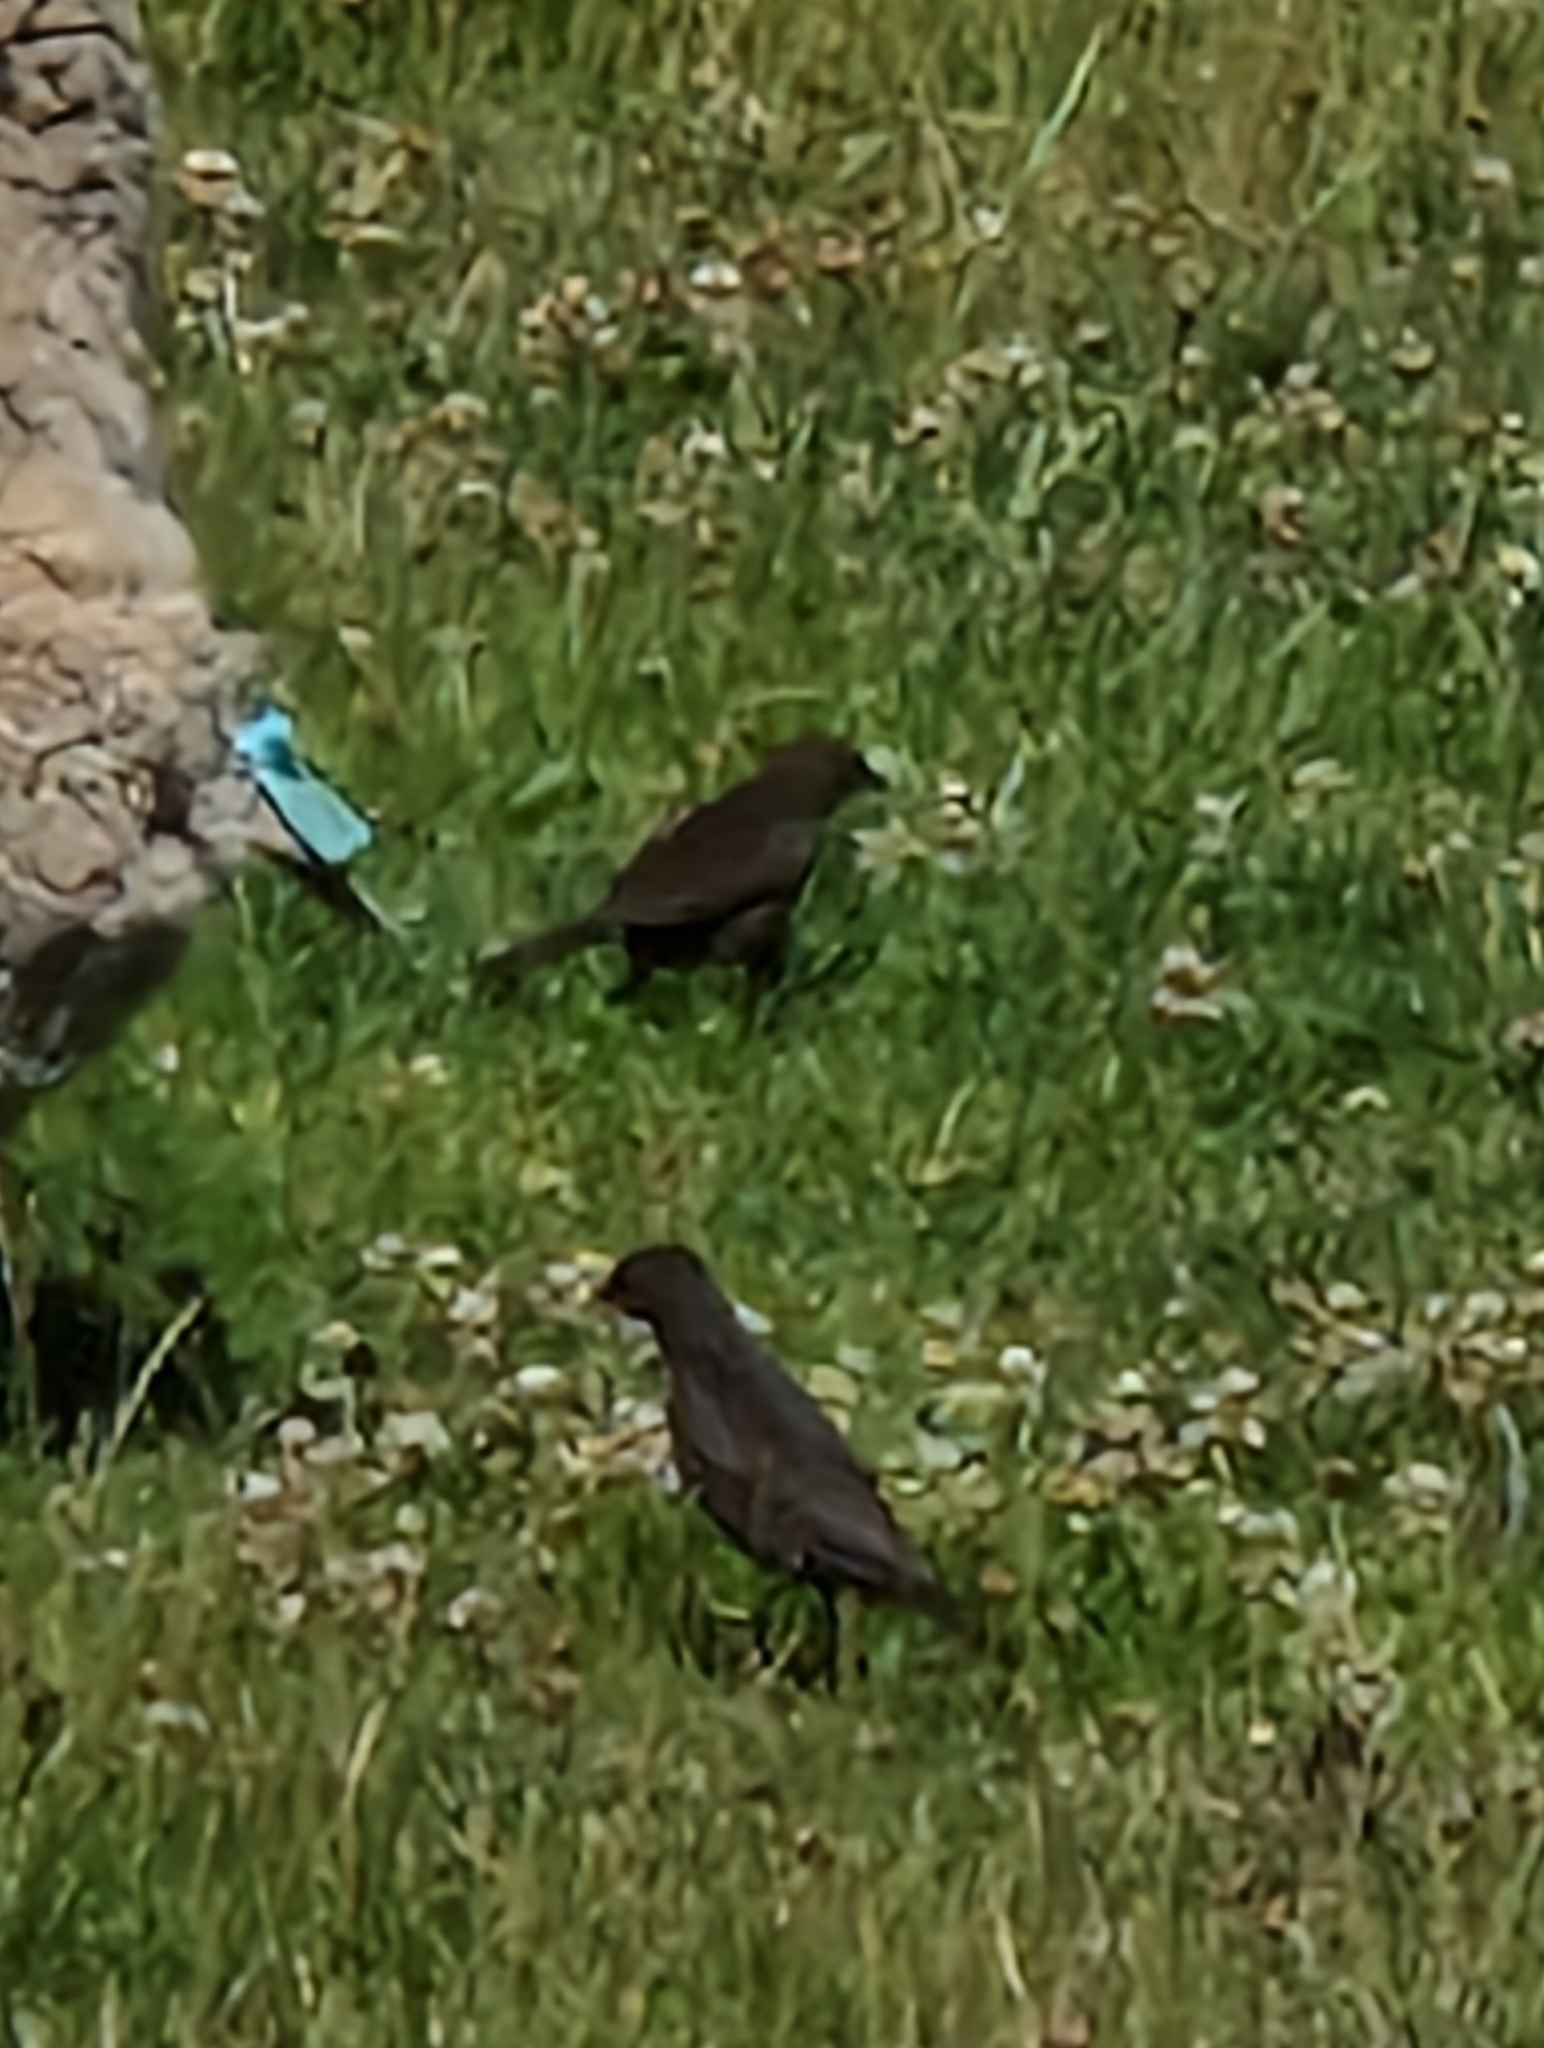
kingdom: Animalia
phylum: Chordata
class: Aves
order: Passeriformes
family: Icteridae
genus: Molothrus
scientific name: Molothrus bonariensis
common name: Shiny cowbird
